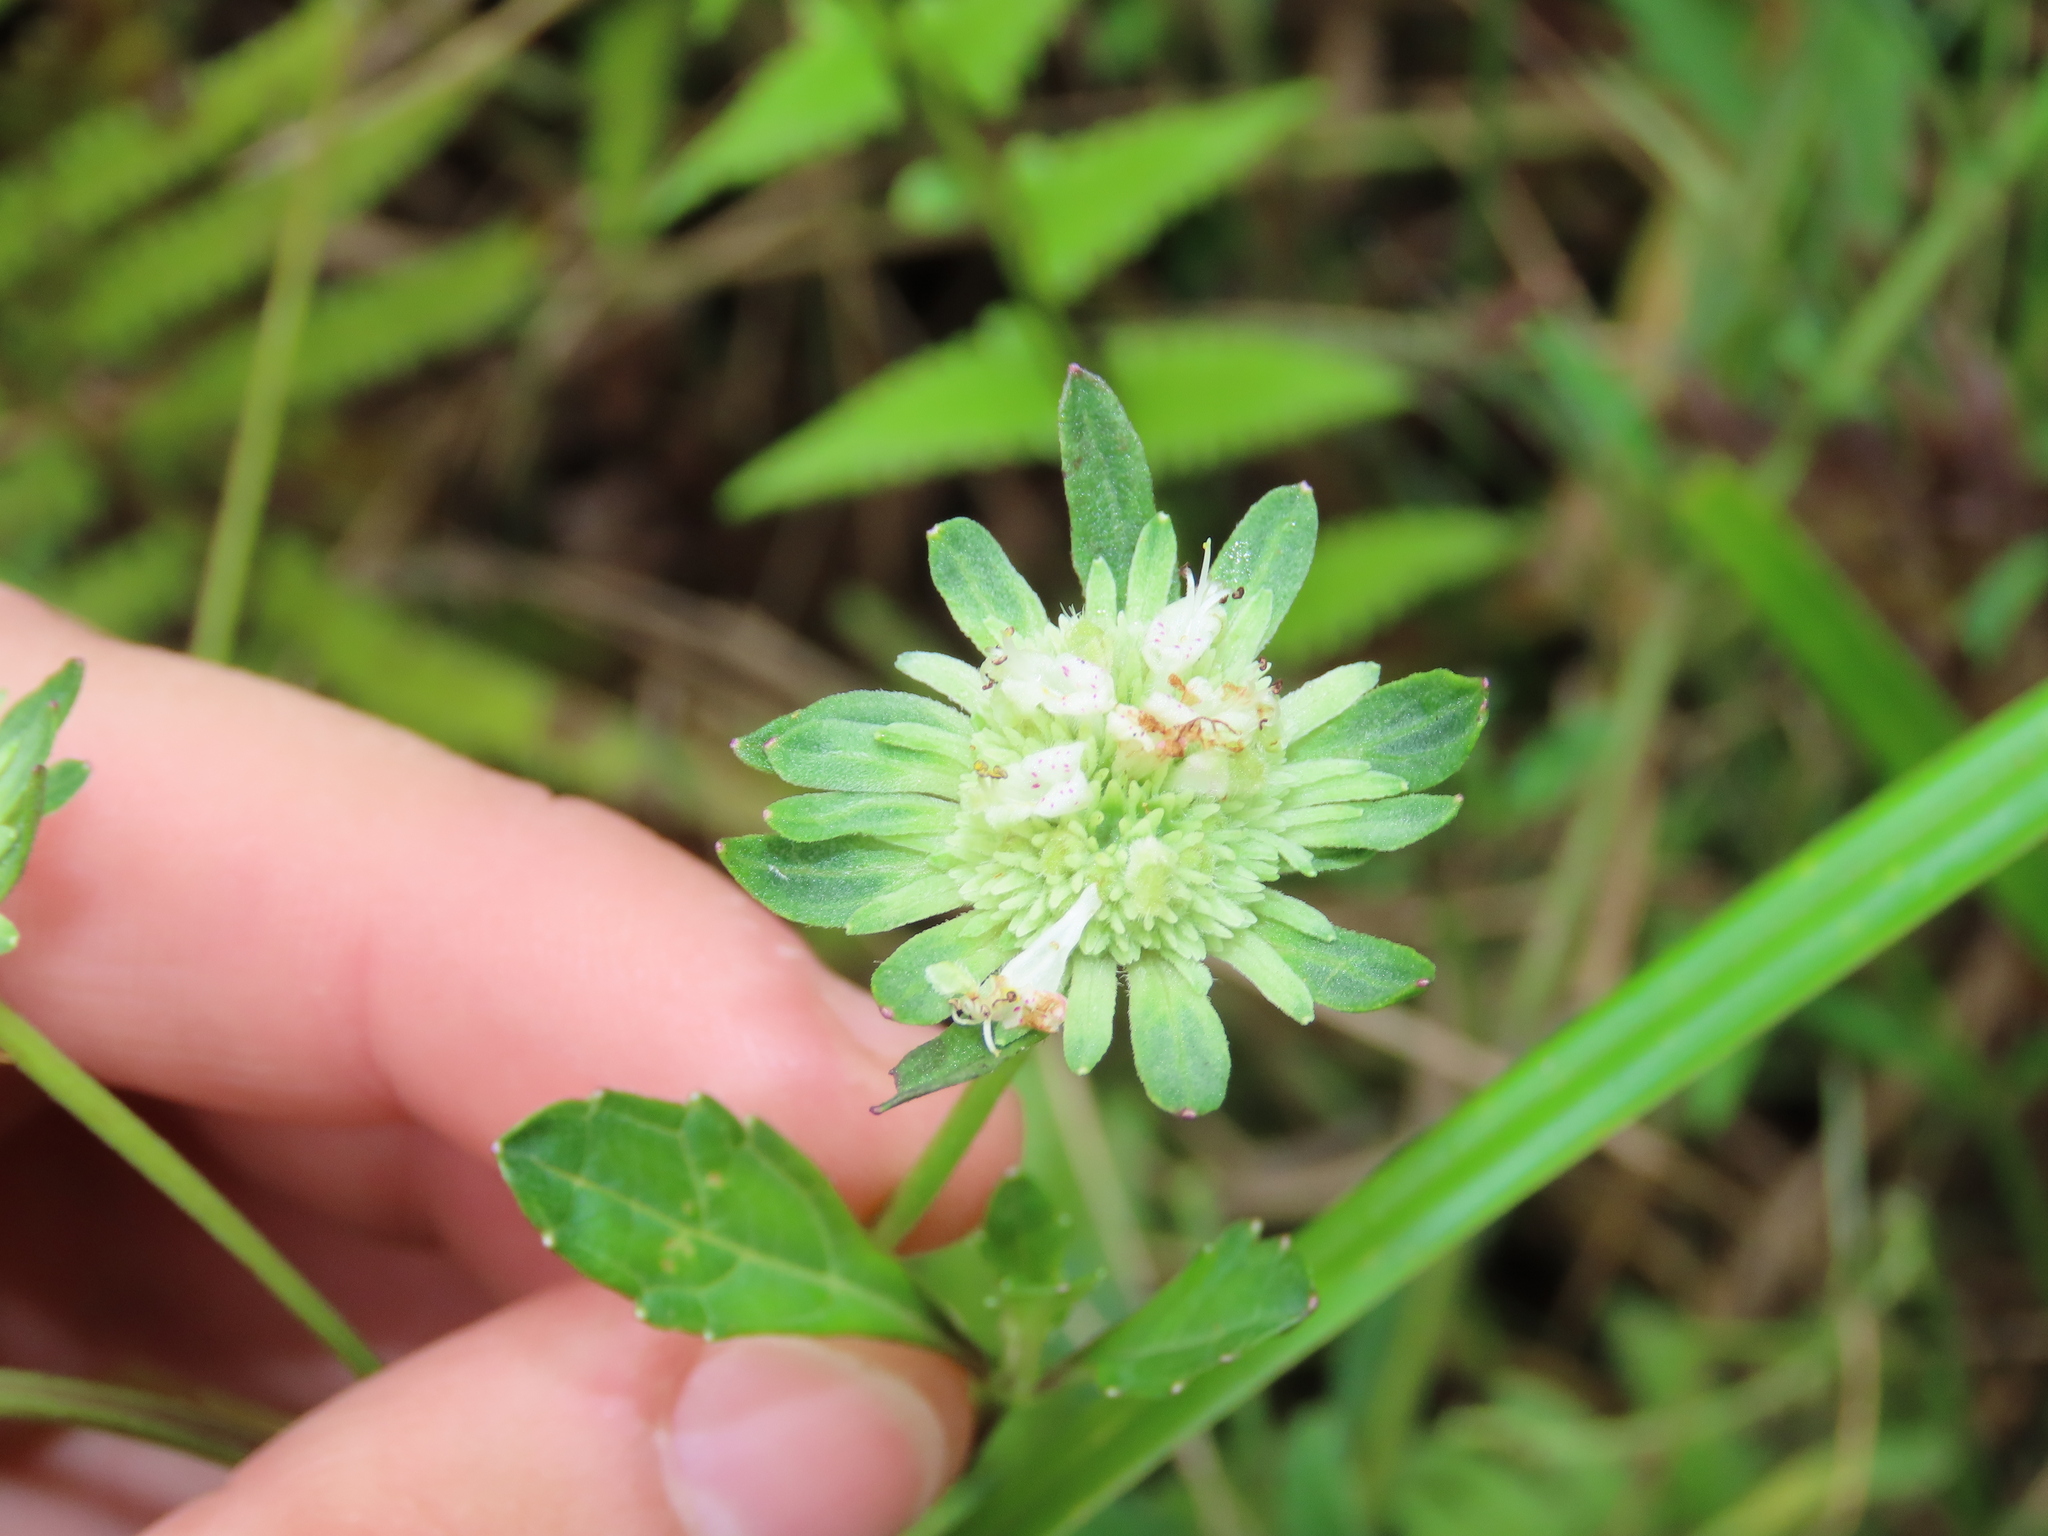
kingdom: Plantae
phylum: Tracheophyta
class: Magnoliopsida
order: Lamiales
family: Lamiaceae
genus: Hyptis
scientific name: Hyptis alata
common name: Cluster bush-mint
